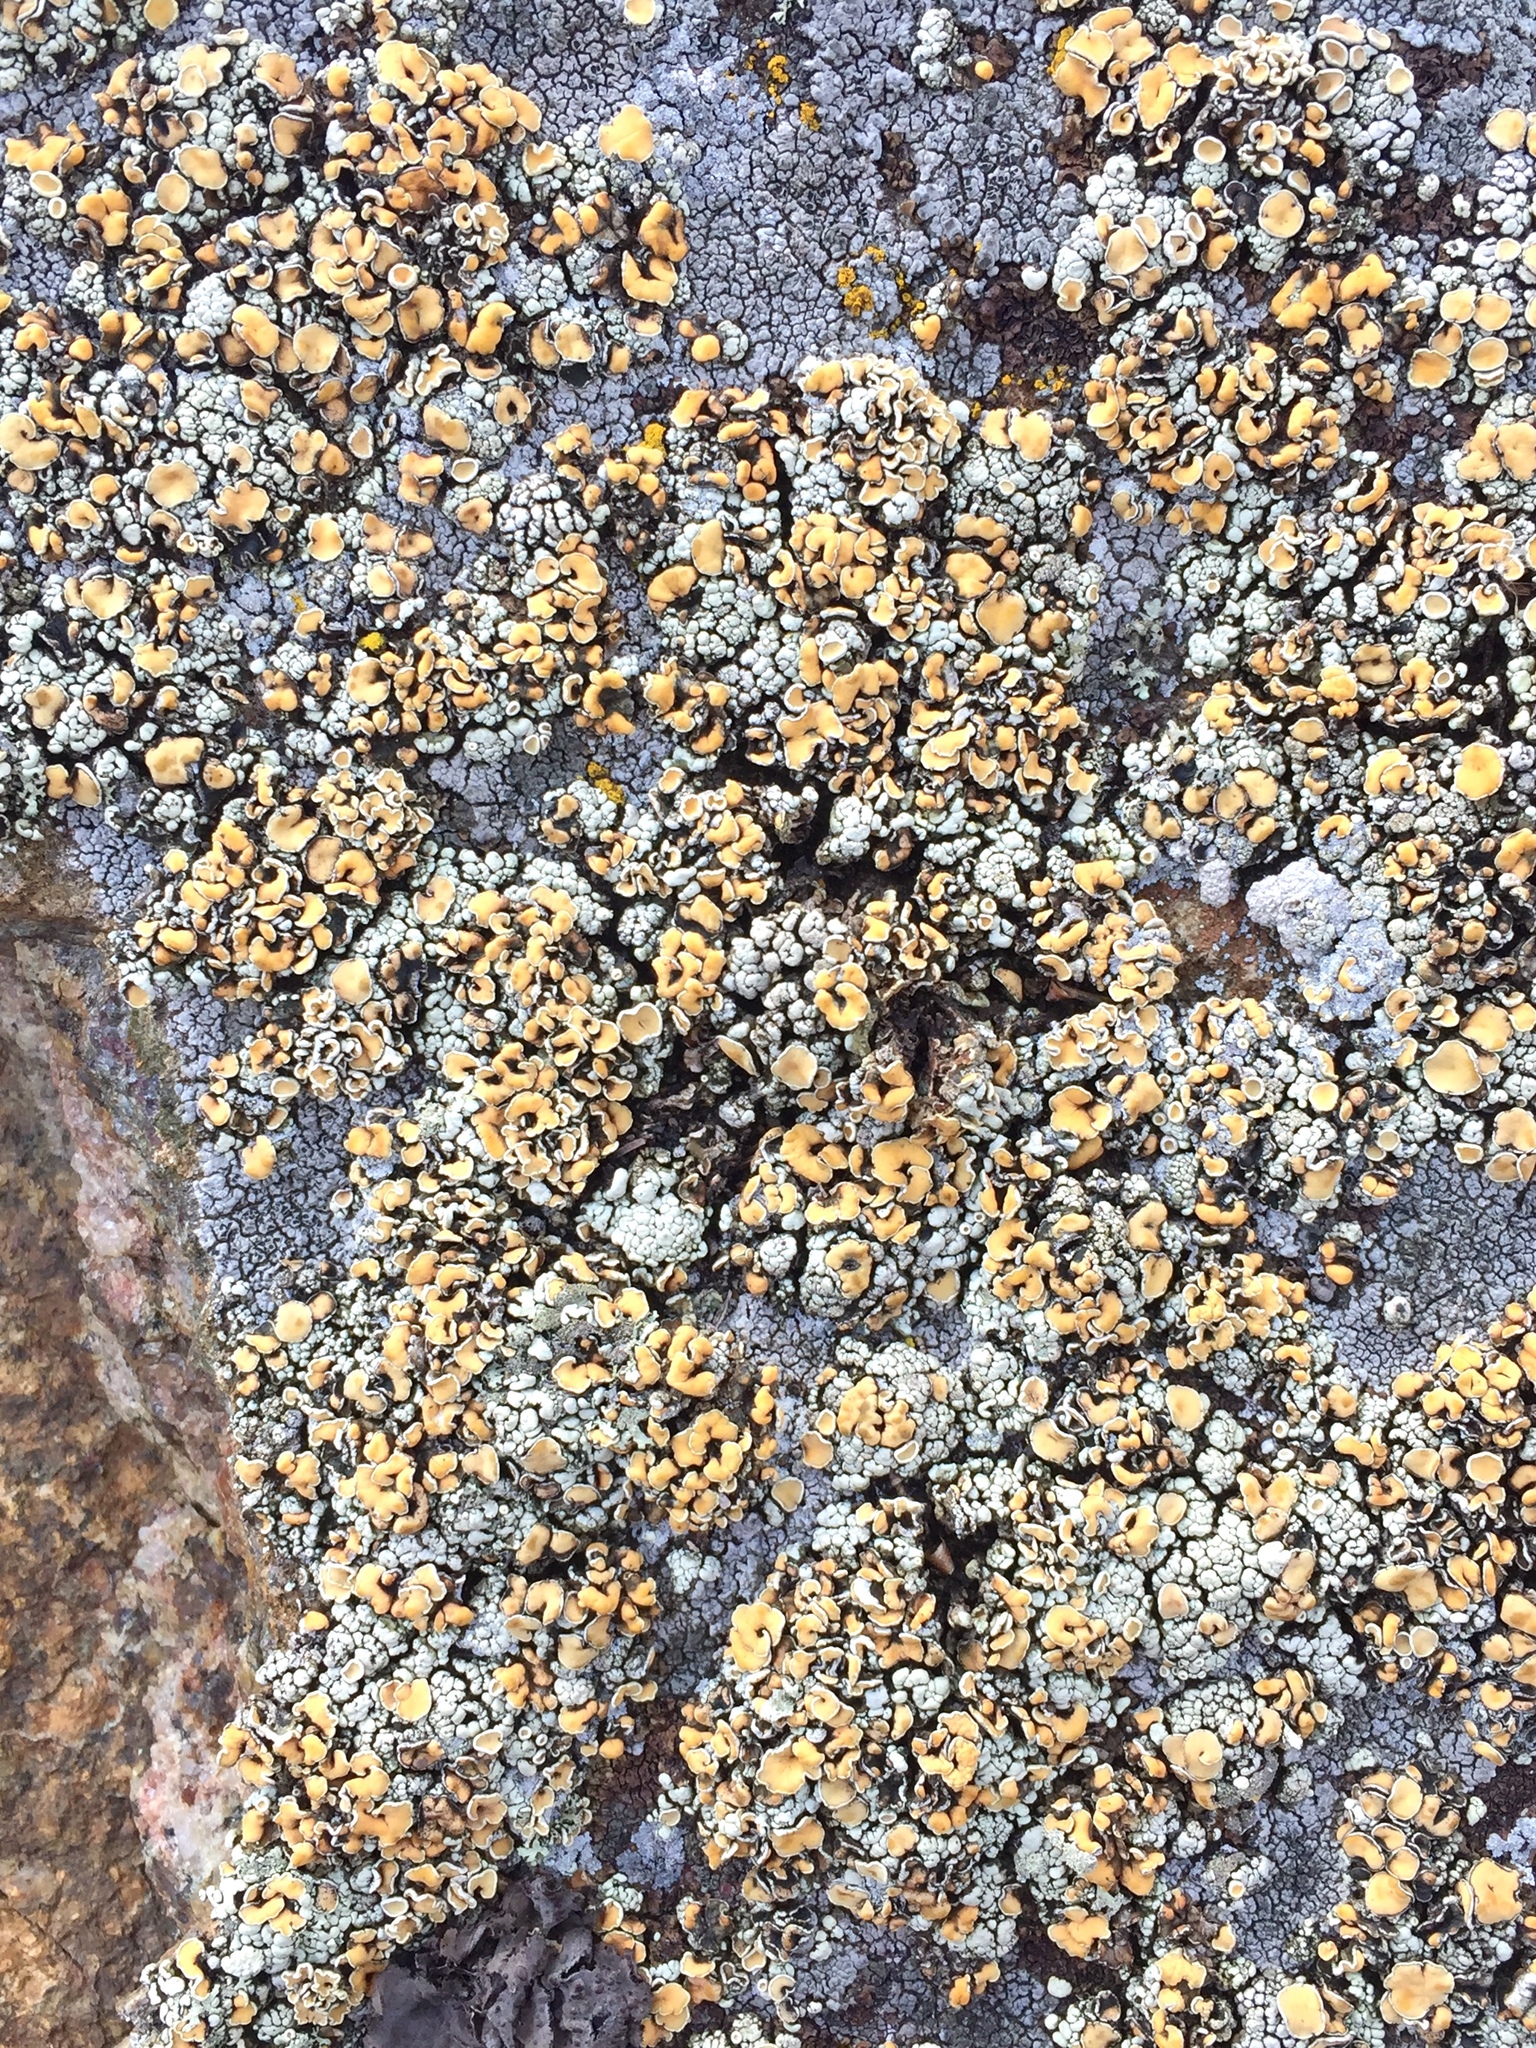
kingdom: Fungi
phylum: Ascomycota
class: Lecanoromycetes
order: Lecanorales
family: Lecanoraceae
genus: Sedelnikovaea
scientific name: Sedelnikovaea subdiscrepans
